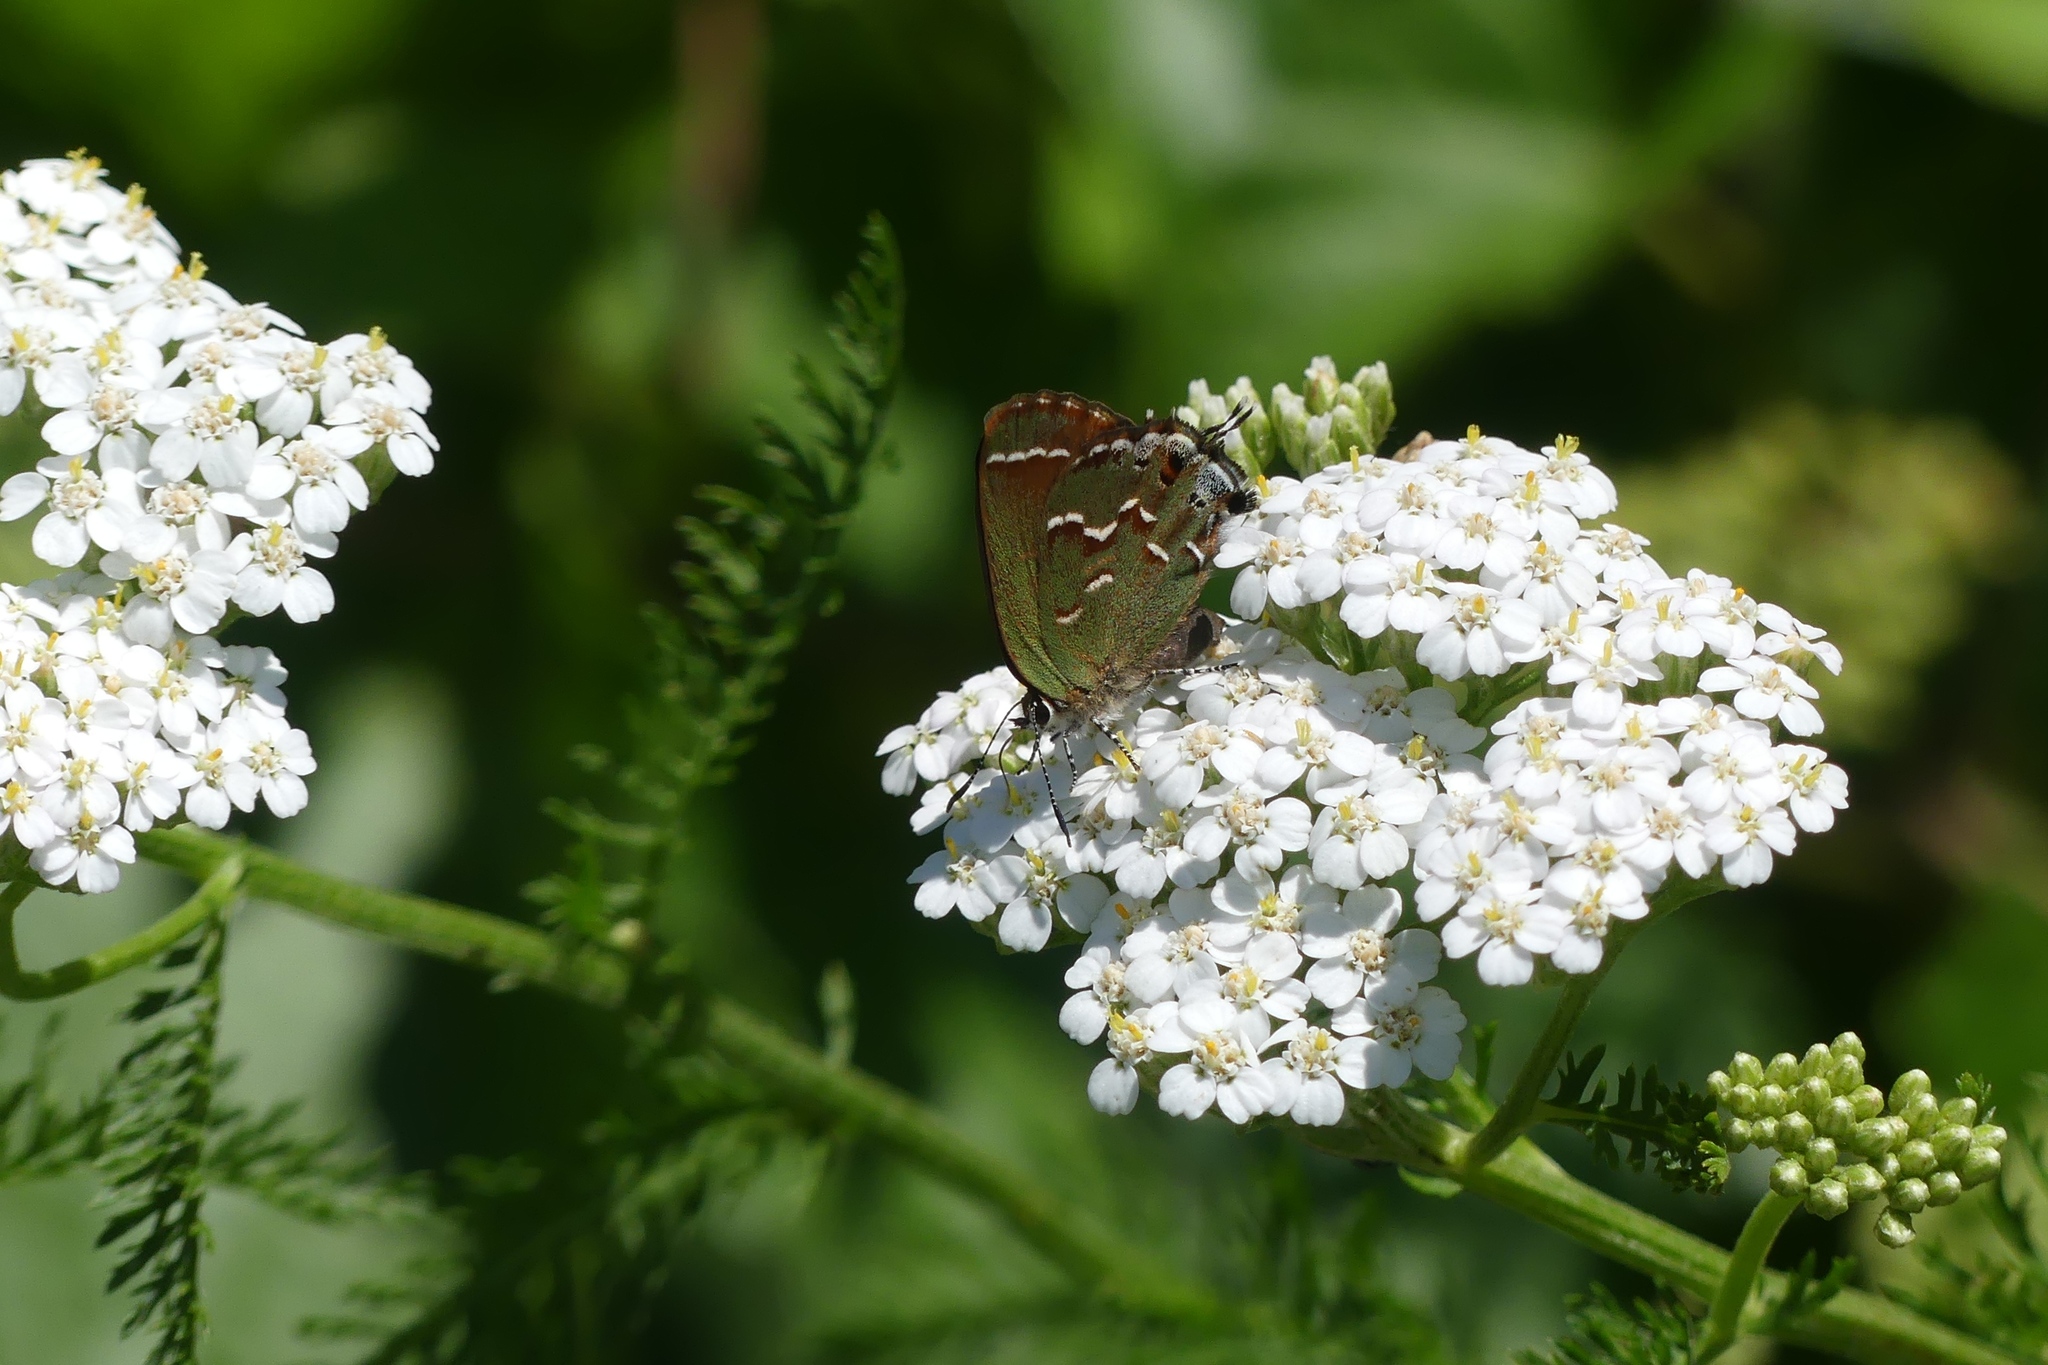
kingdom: Animalia
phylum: Arthropoda
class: Insecta
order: Lepidoptera
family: Lycaenidae
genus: Mitoura
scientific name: Mitoura gryneus
